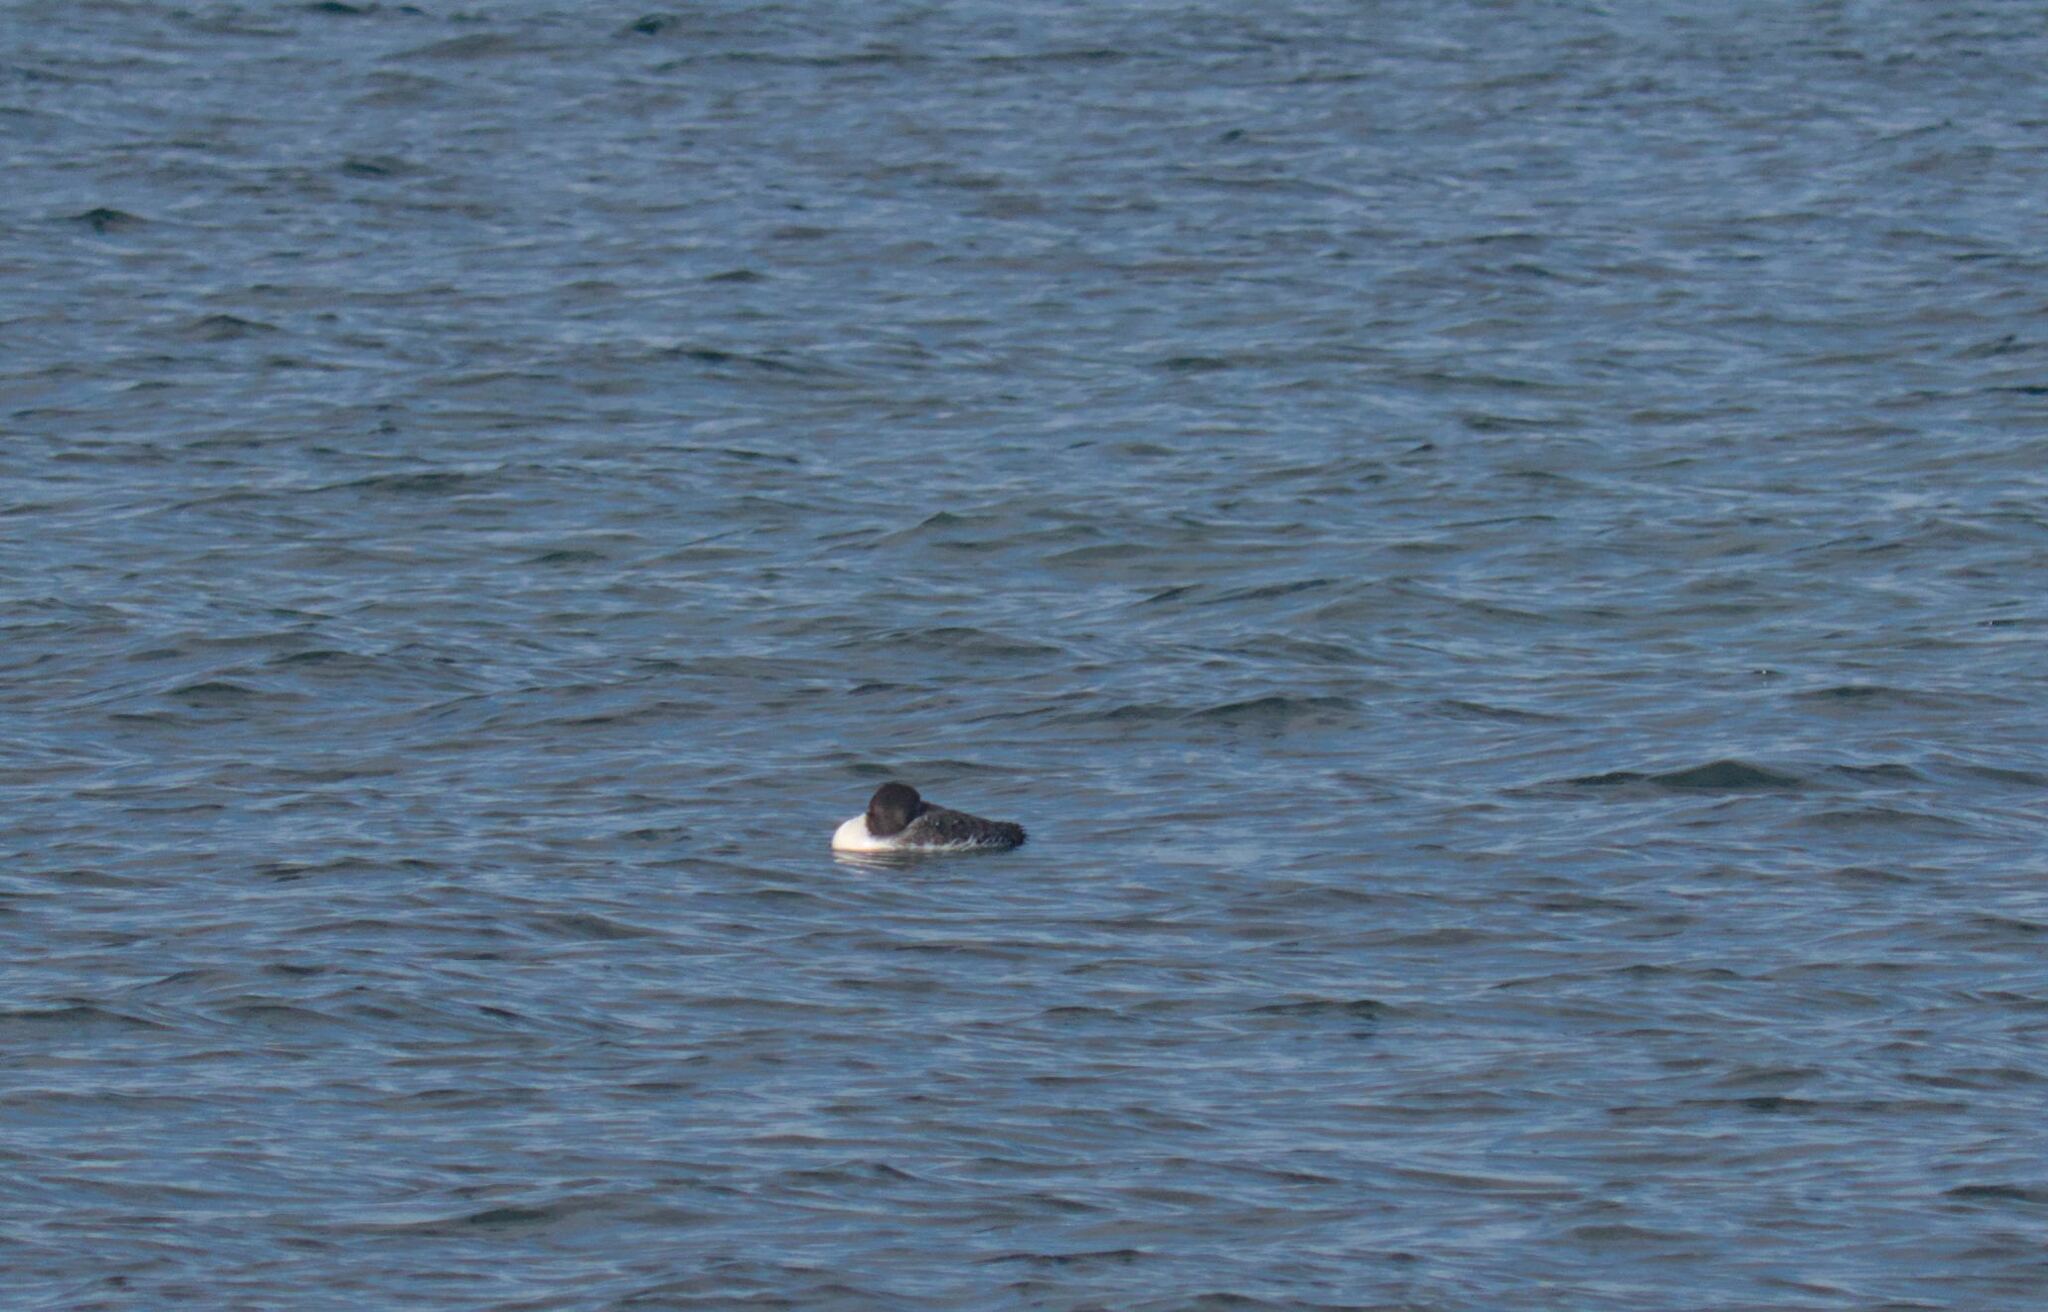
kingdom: Animalia
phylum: Chordata
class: Aves
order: Gaviiformes
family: Gaviidae
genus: Gavia
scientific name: Gavia immer
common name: Common loon
